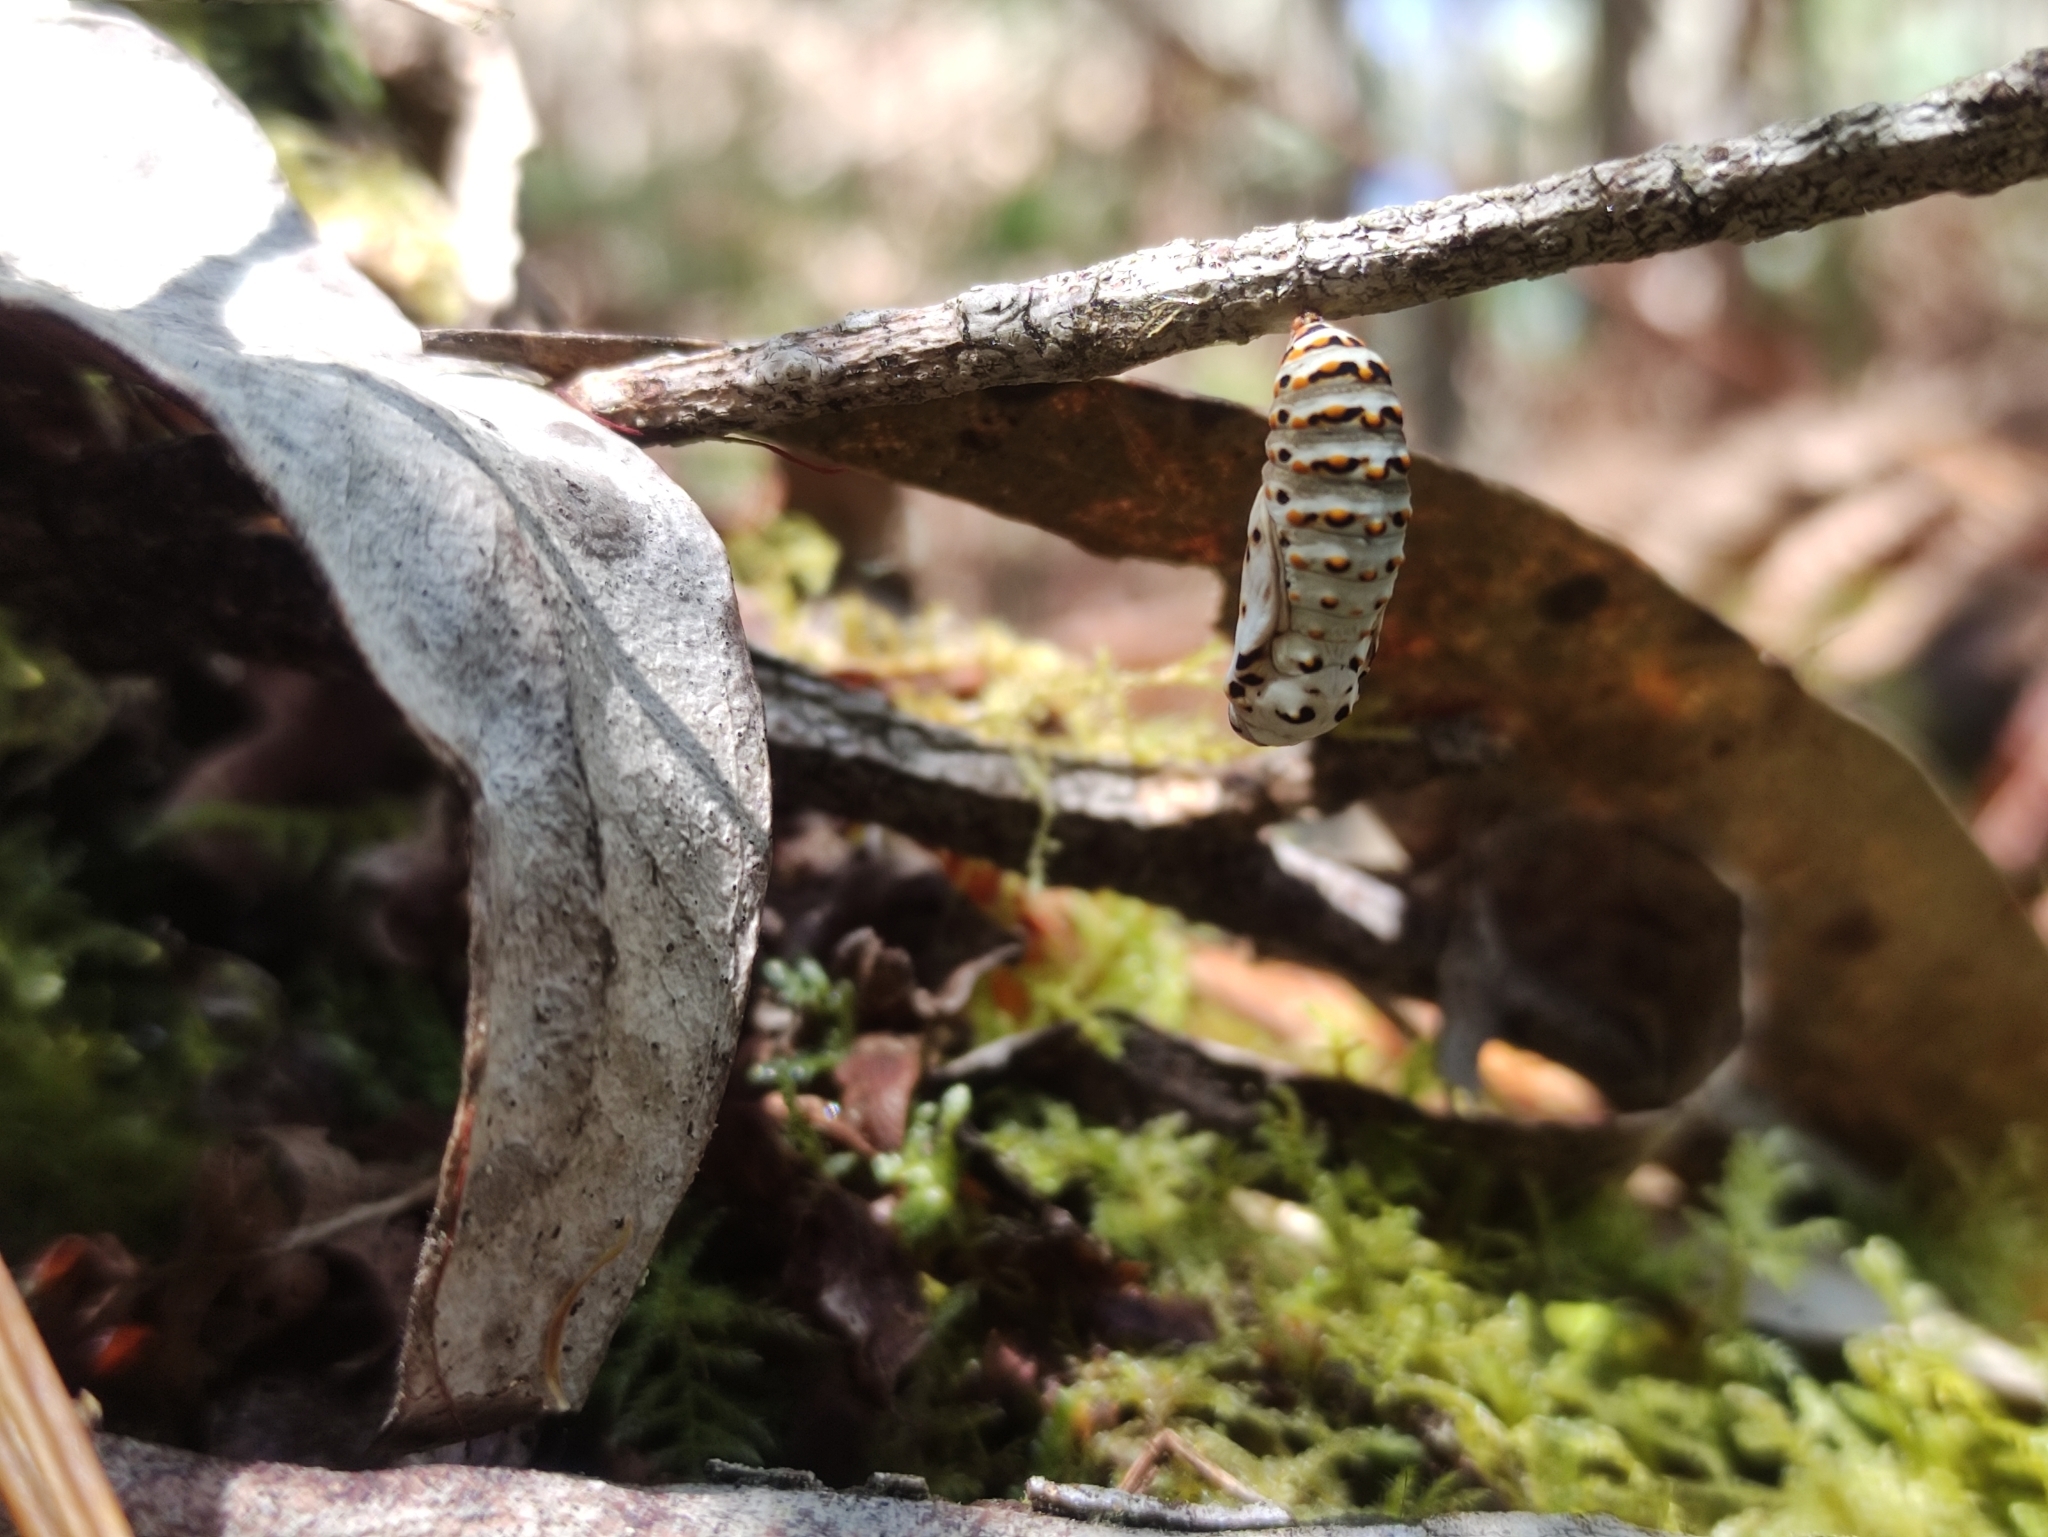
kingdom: Animalia
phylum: Arthropoda
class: Insecta
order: Lepidoptera
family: Nymphalidae
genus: Euphydryas
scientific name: Euphydryas aurinia
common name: Marsh fritillary
